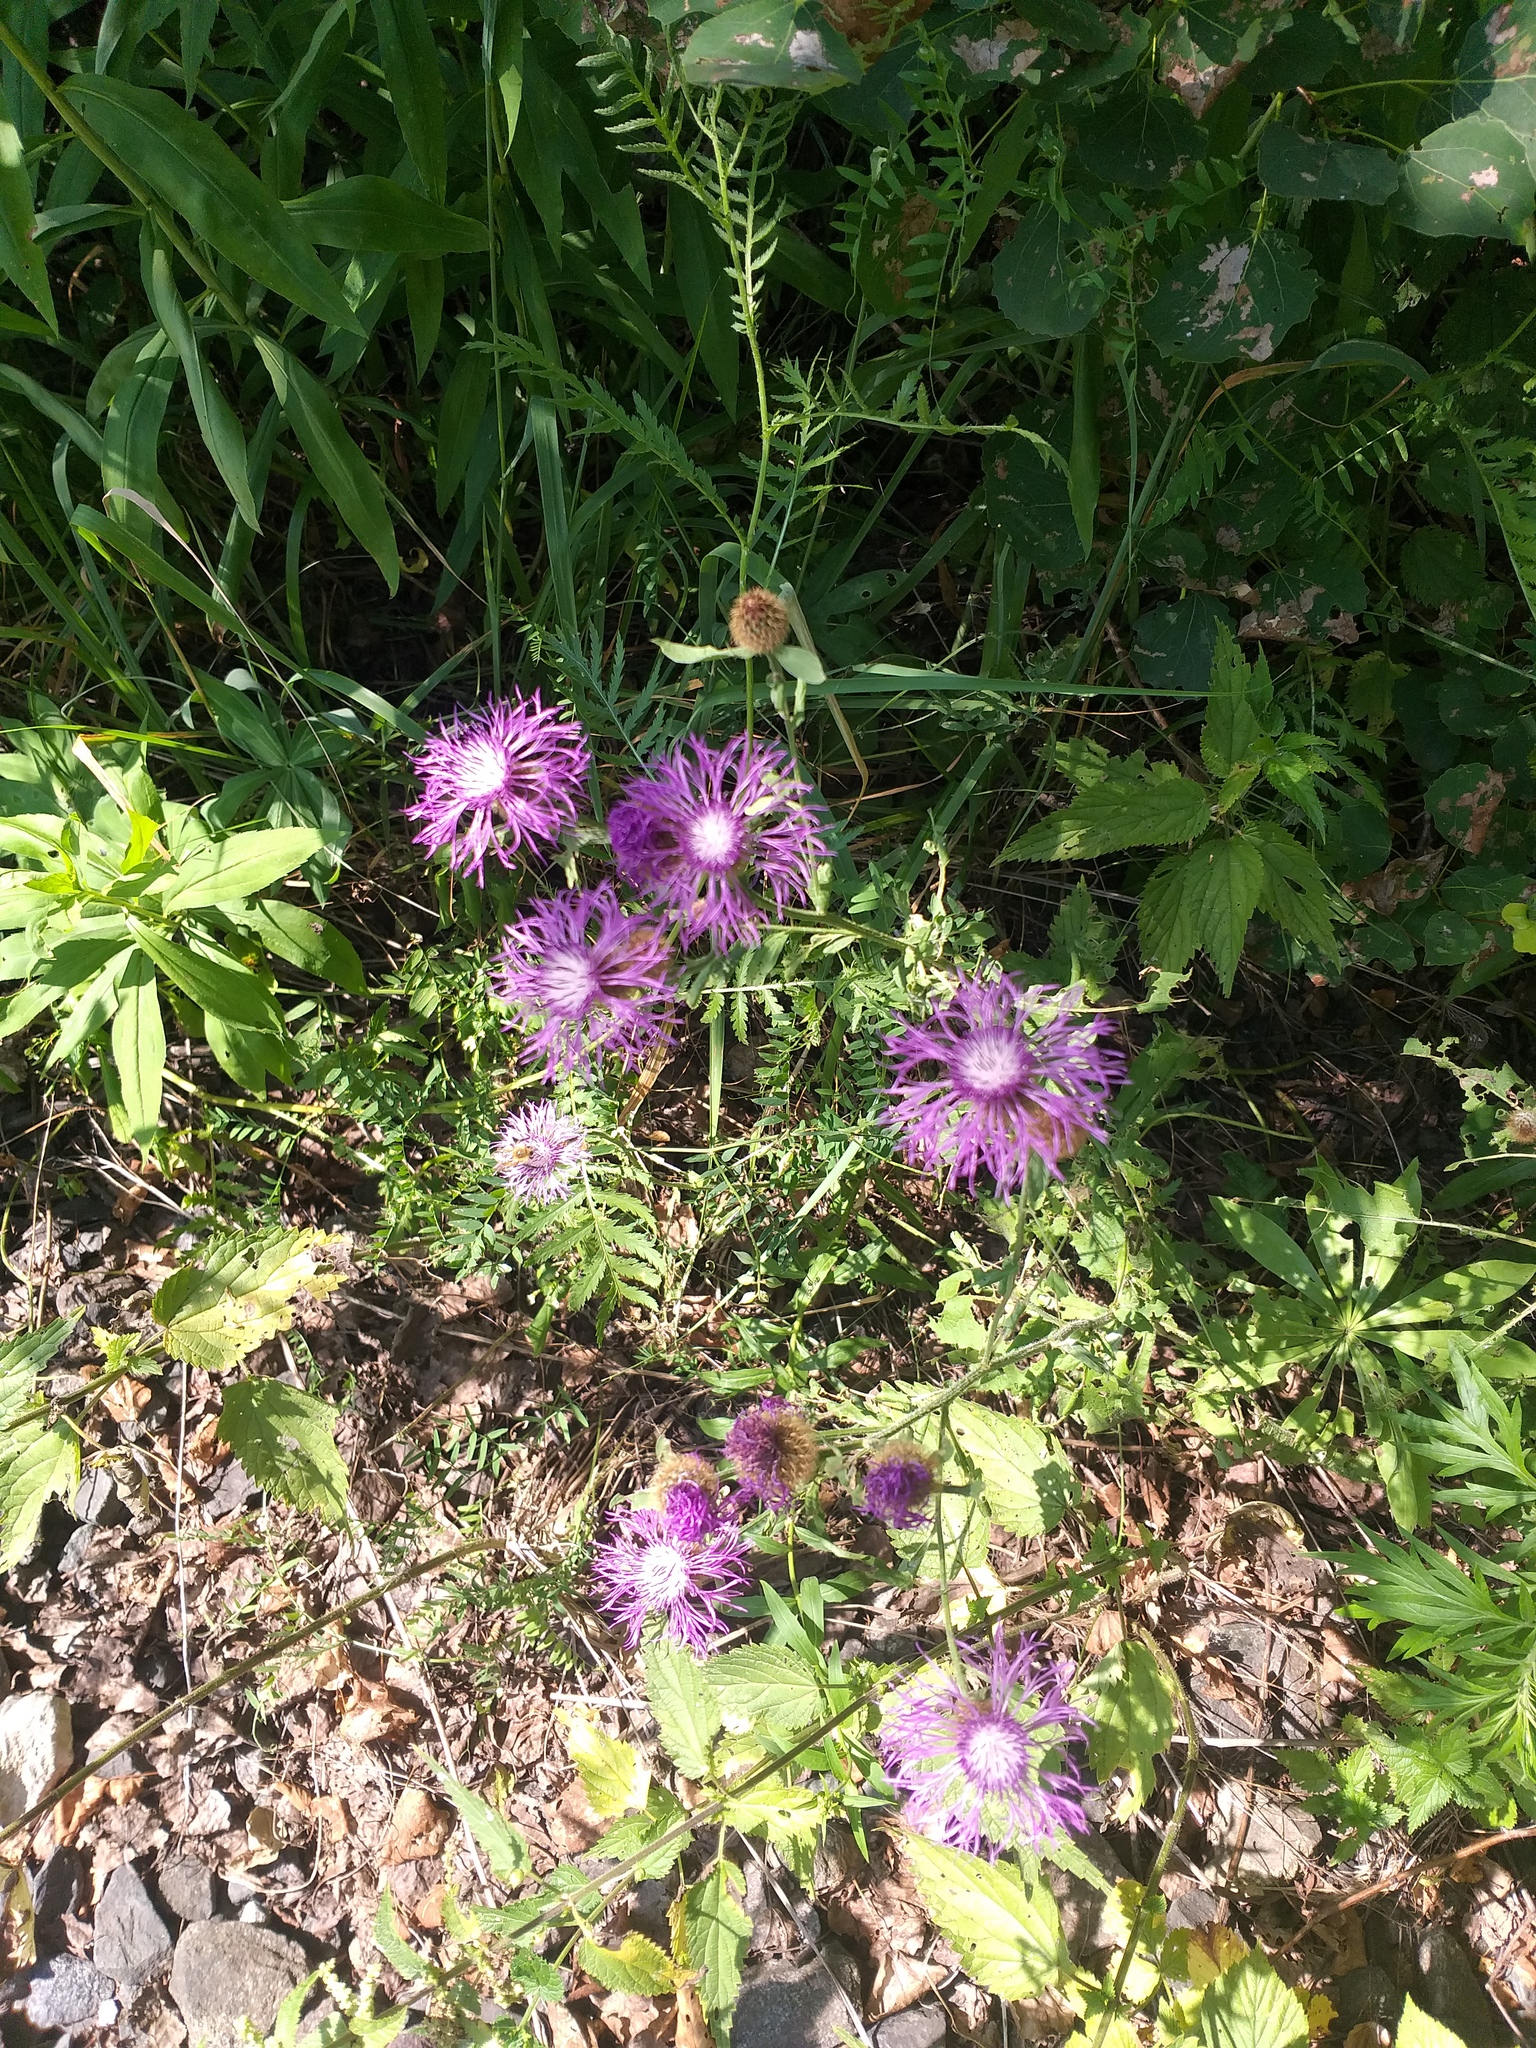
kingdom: Plantae
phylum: Tracheophyta
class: Magnoliopsida
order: Asterales
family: Asteraceae
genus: Centaurea
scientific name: Centaurea pseudophrygia
